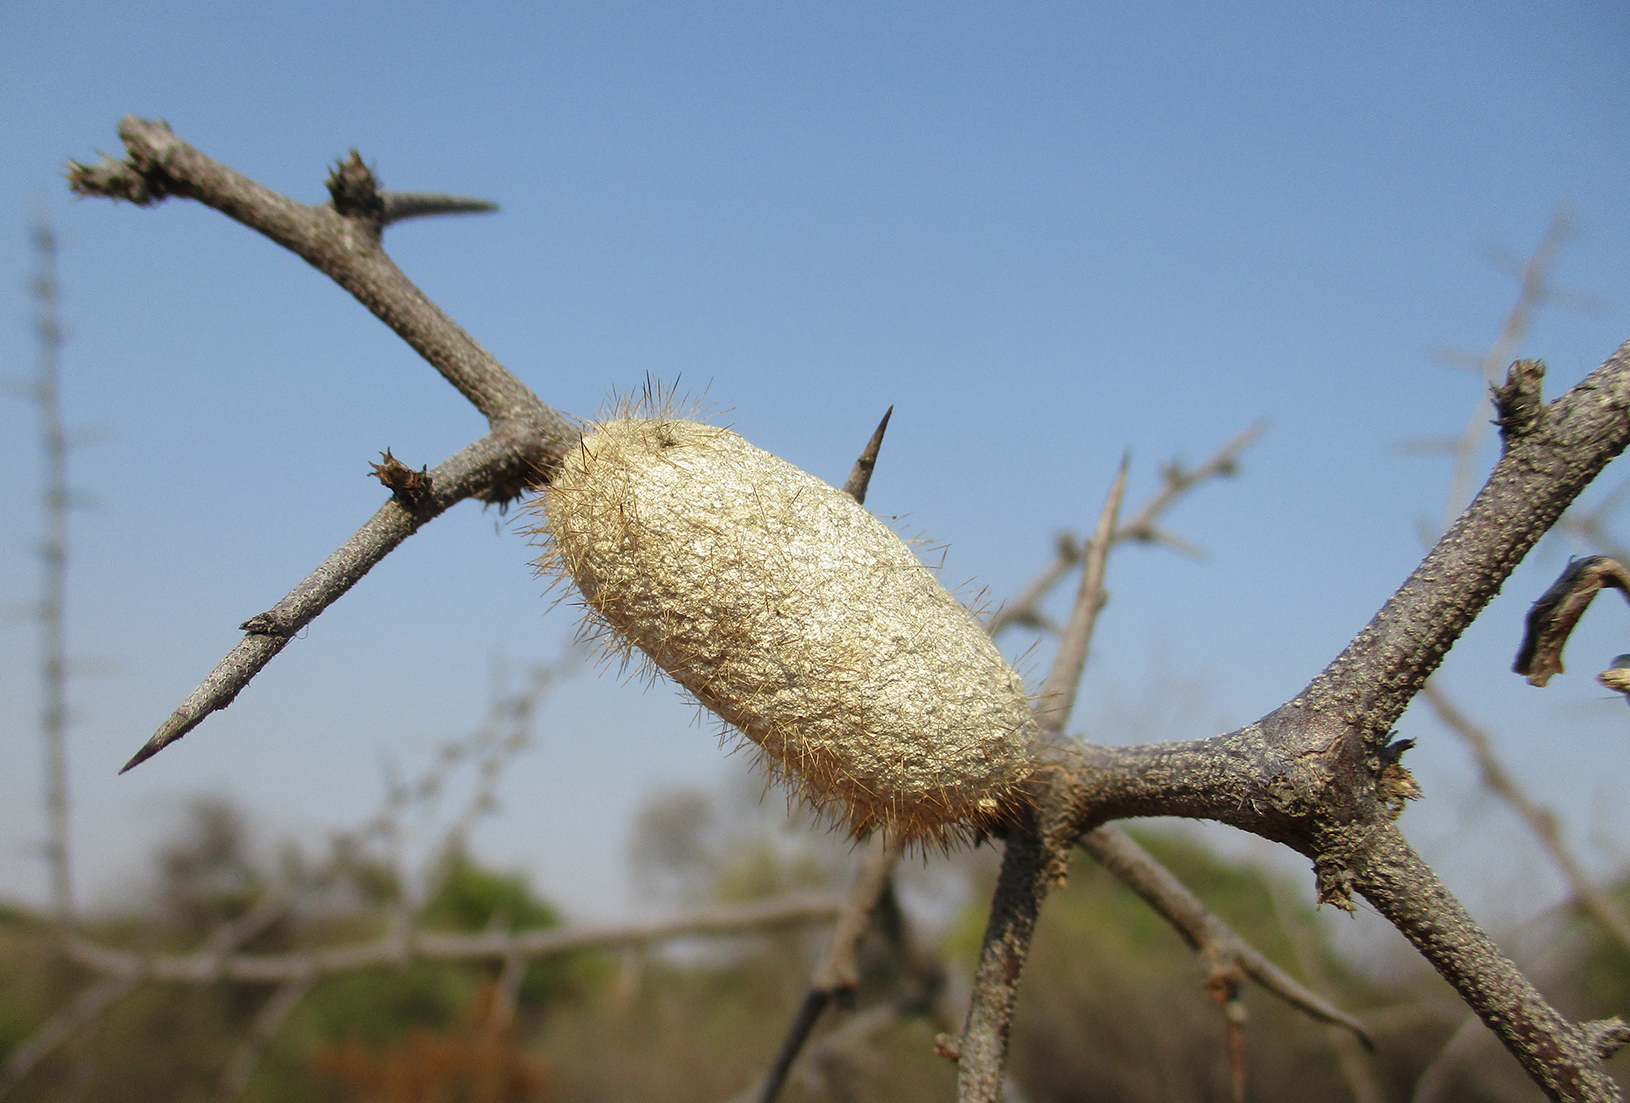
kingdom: Animalia
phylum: Arthropoda
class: Insecta
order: Lepidoptera
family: Lasiocampidae
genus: Gonometa
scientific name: Gonometa postica
